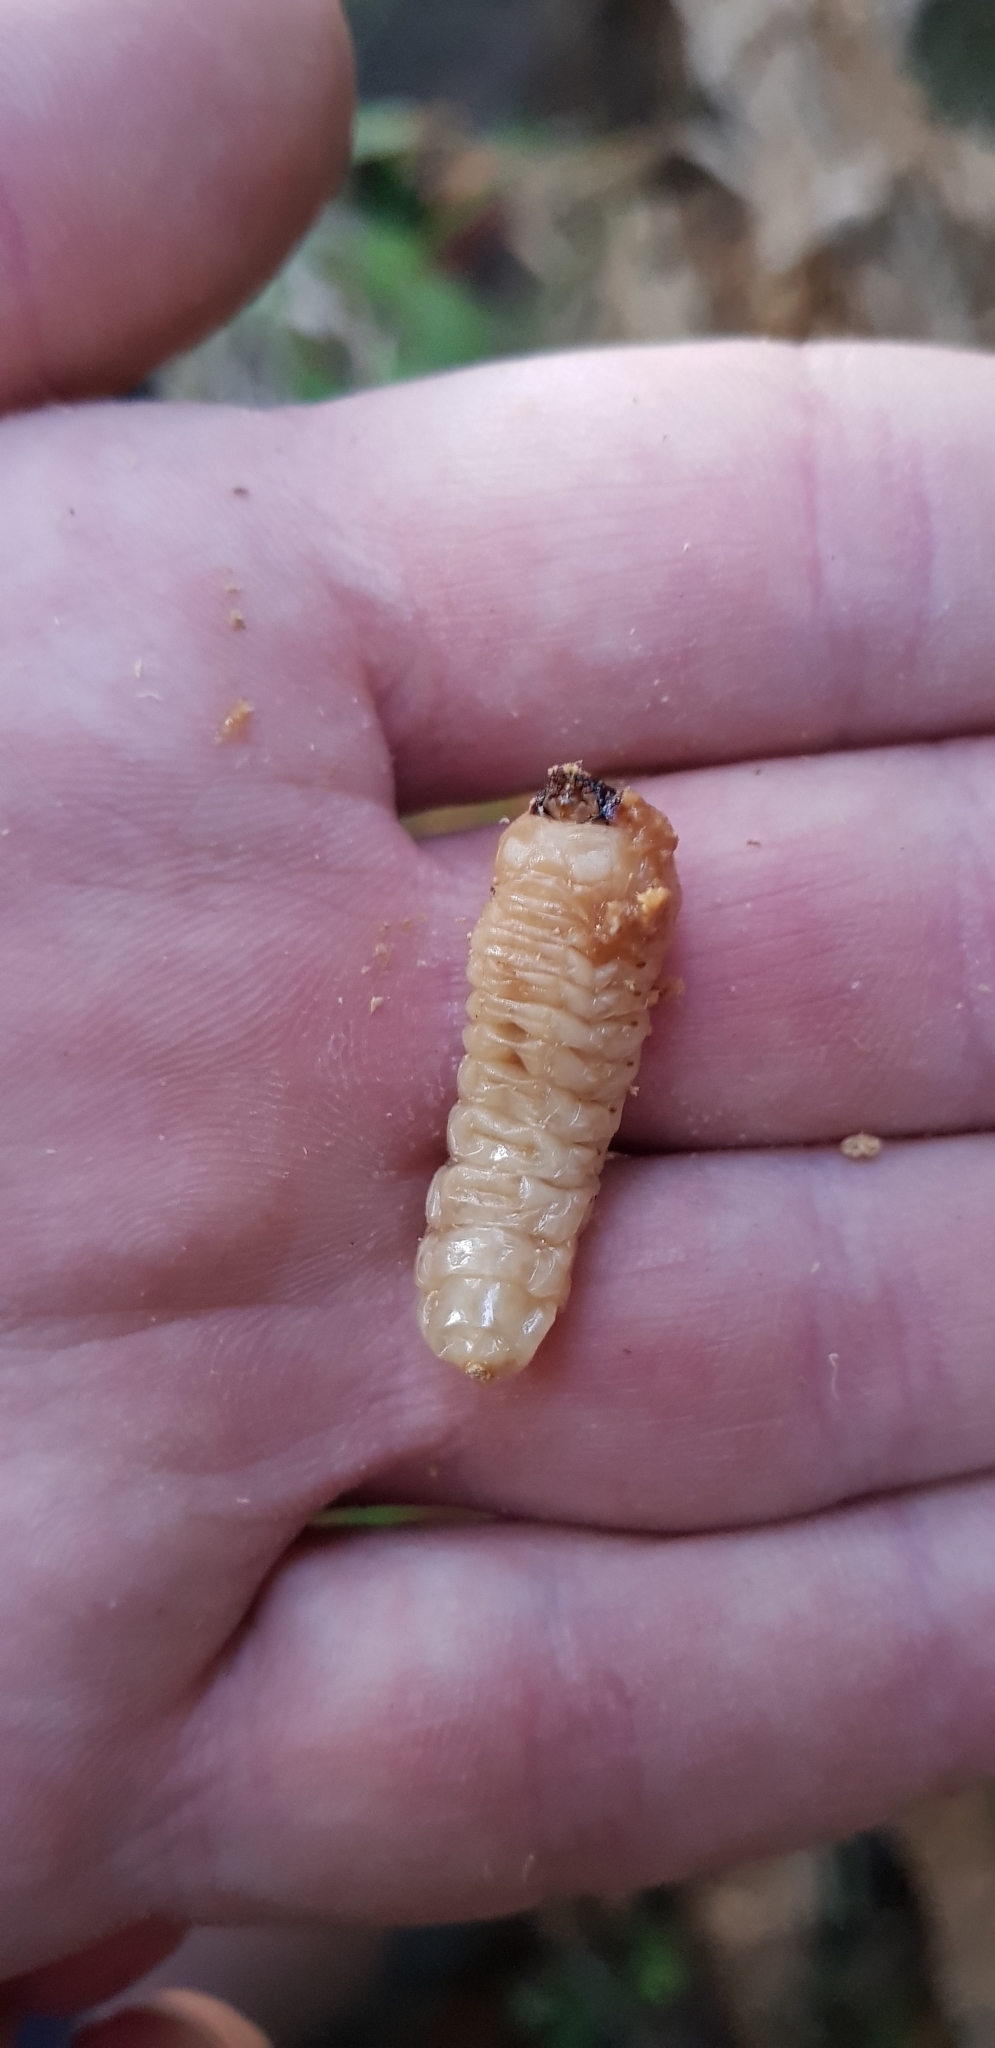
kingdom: Animalia
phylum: Arthropoda
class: Insecta
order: Coleoptera
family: Cerambycidae
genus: Prionoplus
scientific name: Prionoplus reticularis
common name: Huhu beetle
